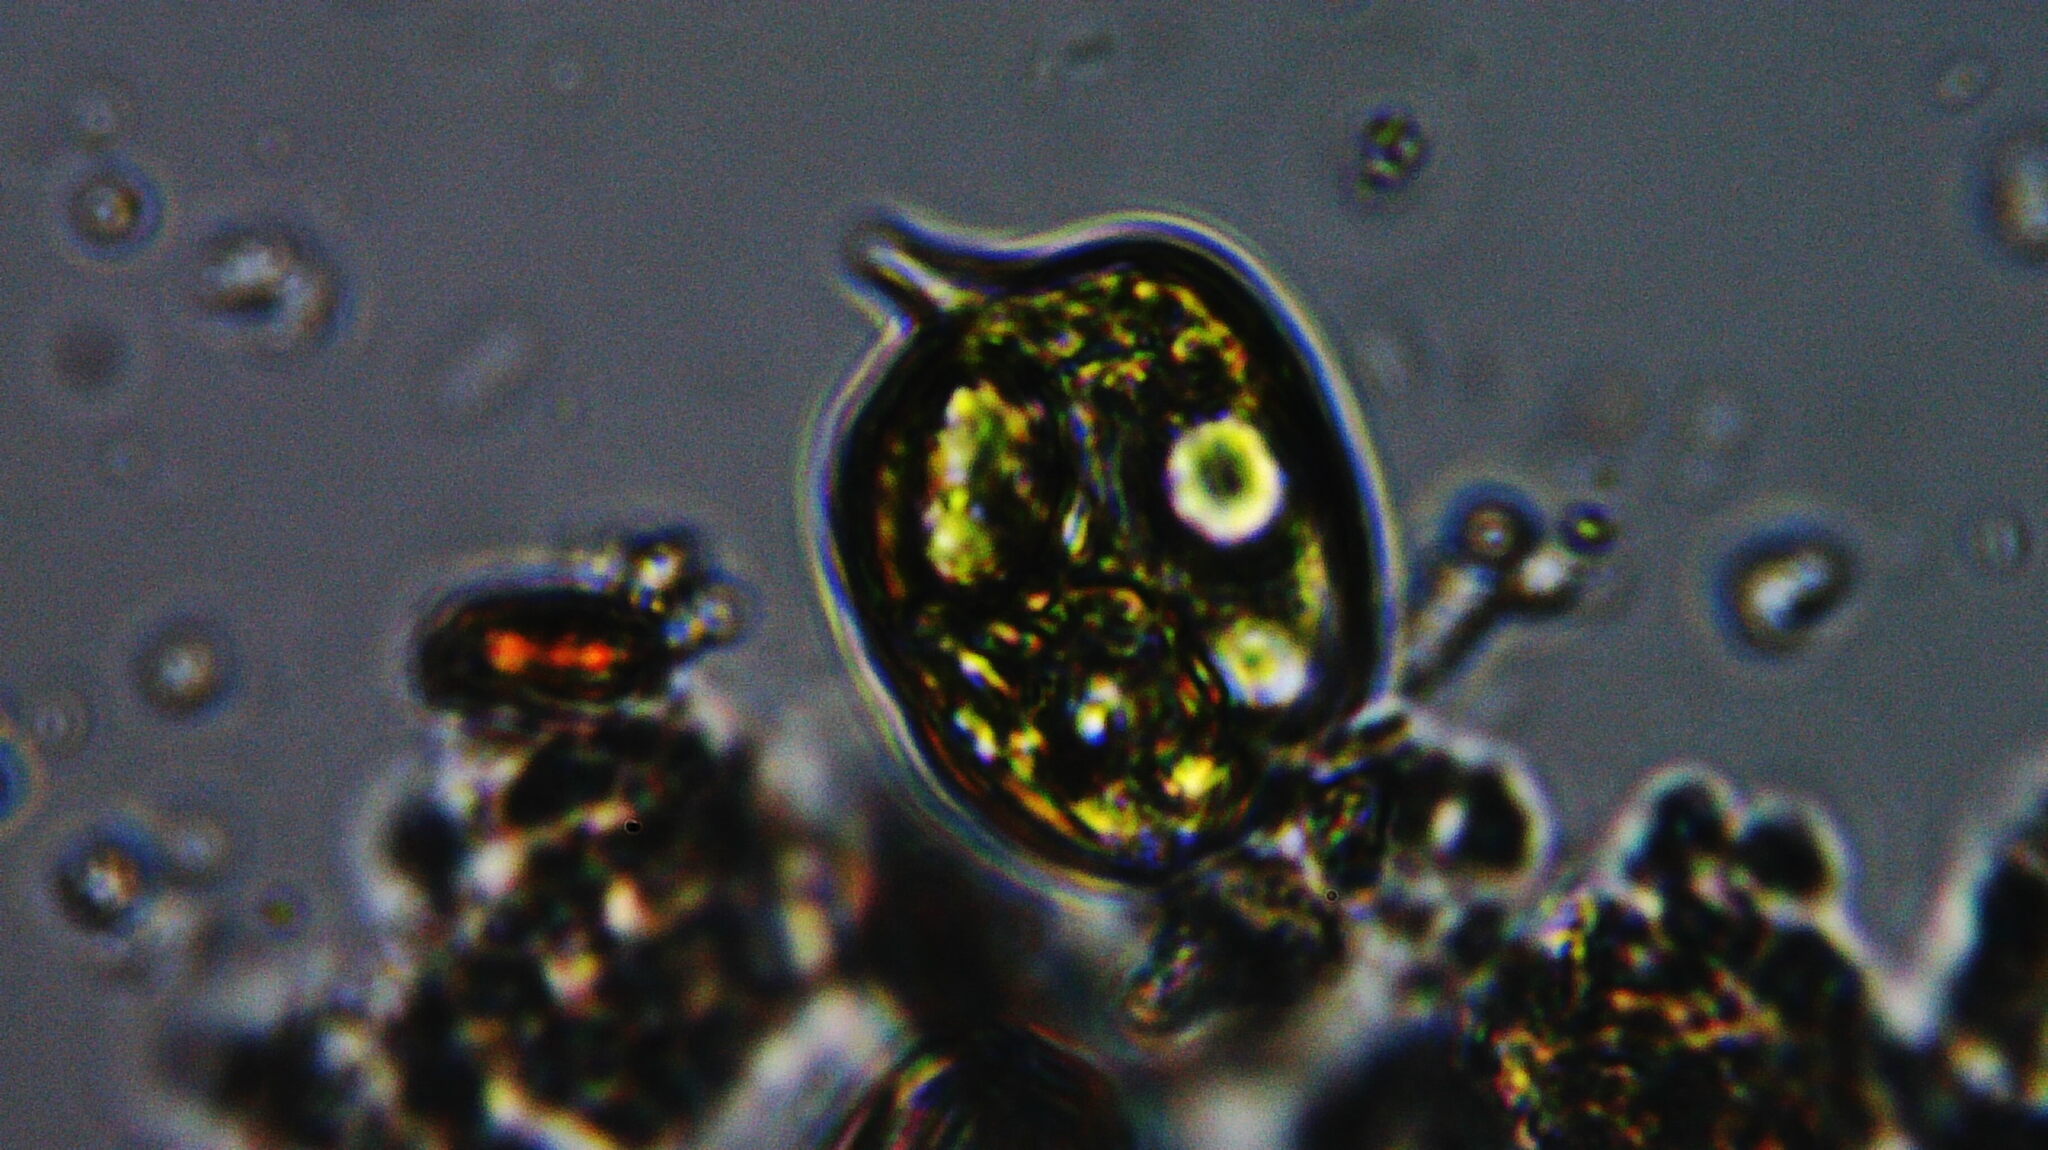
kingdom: Protozoa
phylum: Euglenozoa
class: Euglenoidea
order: Euglenida
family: Phacidae
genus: Phacus
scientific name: Phacus
